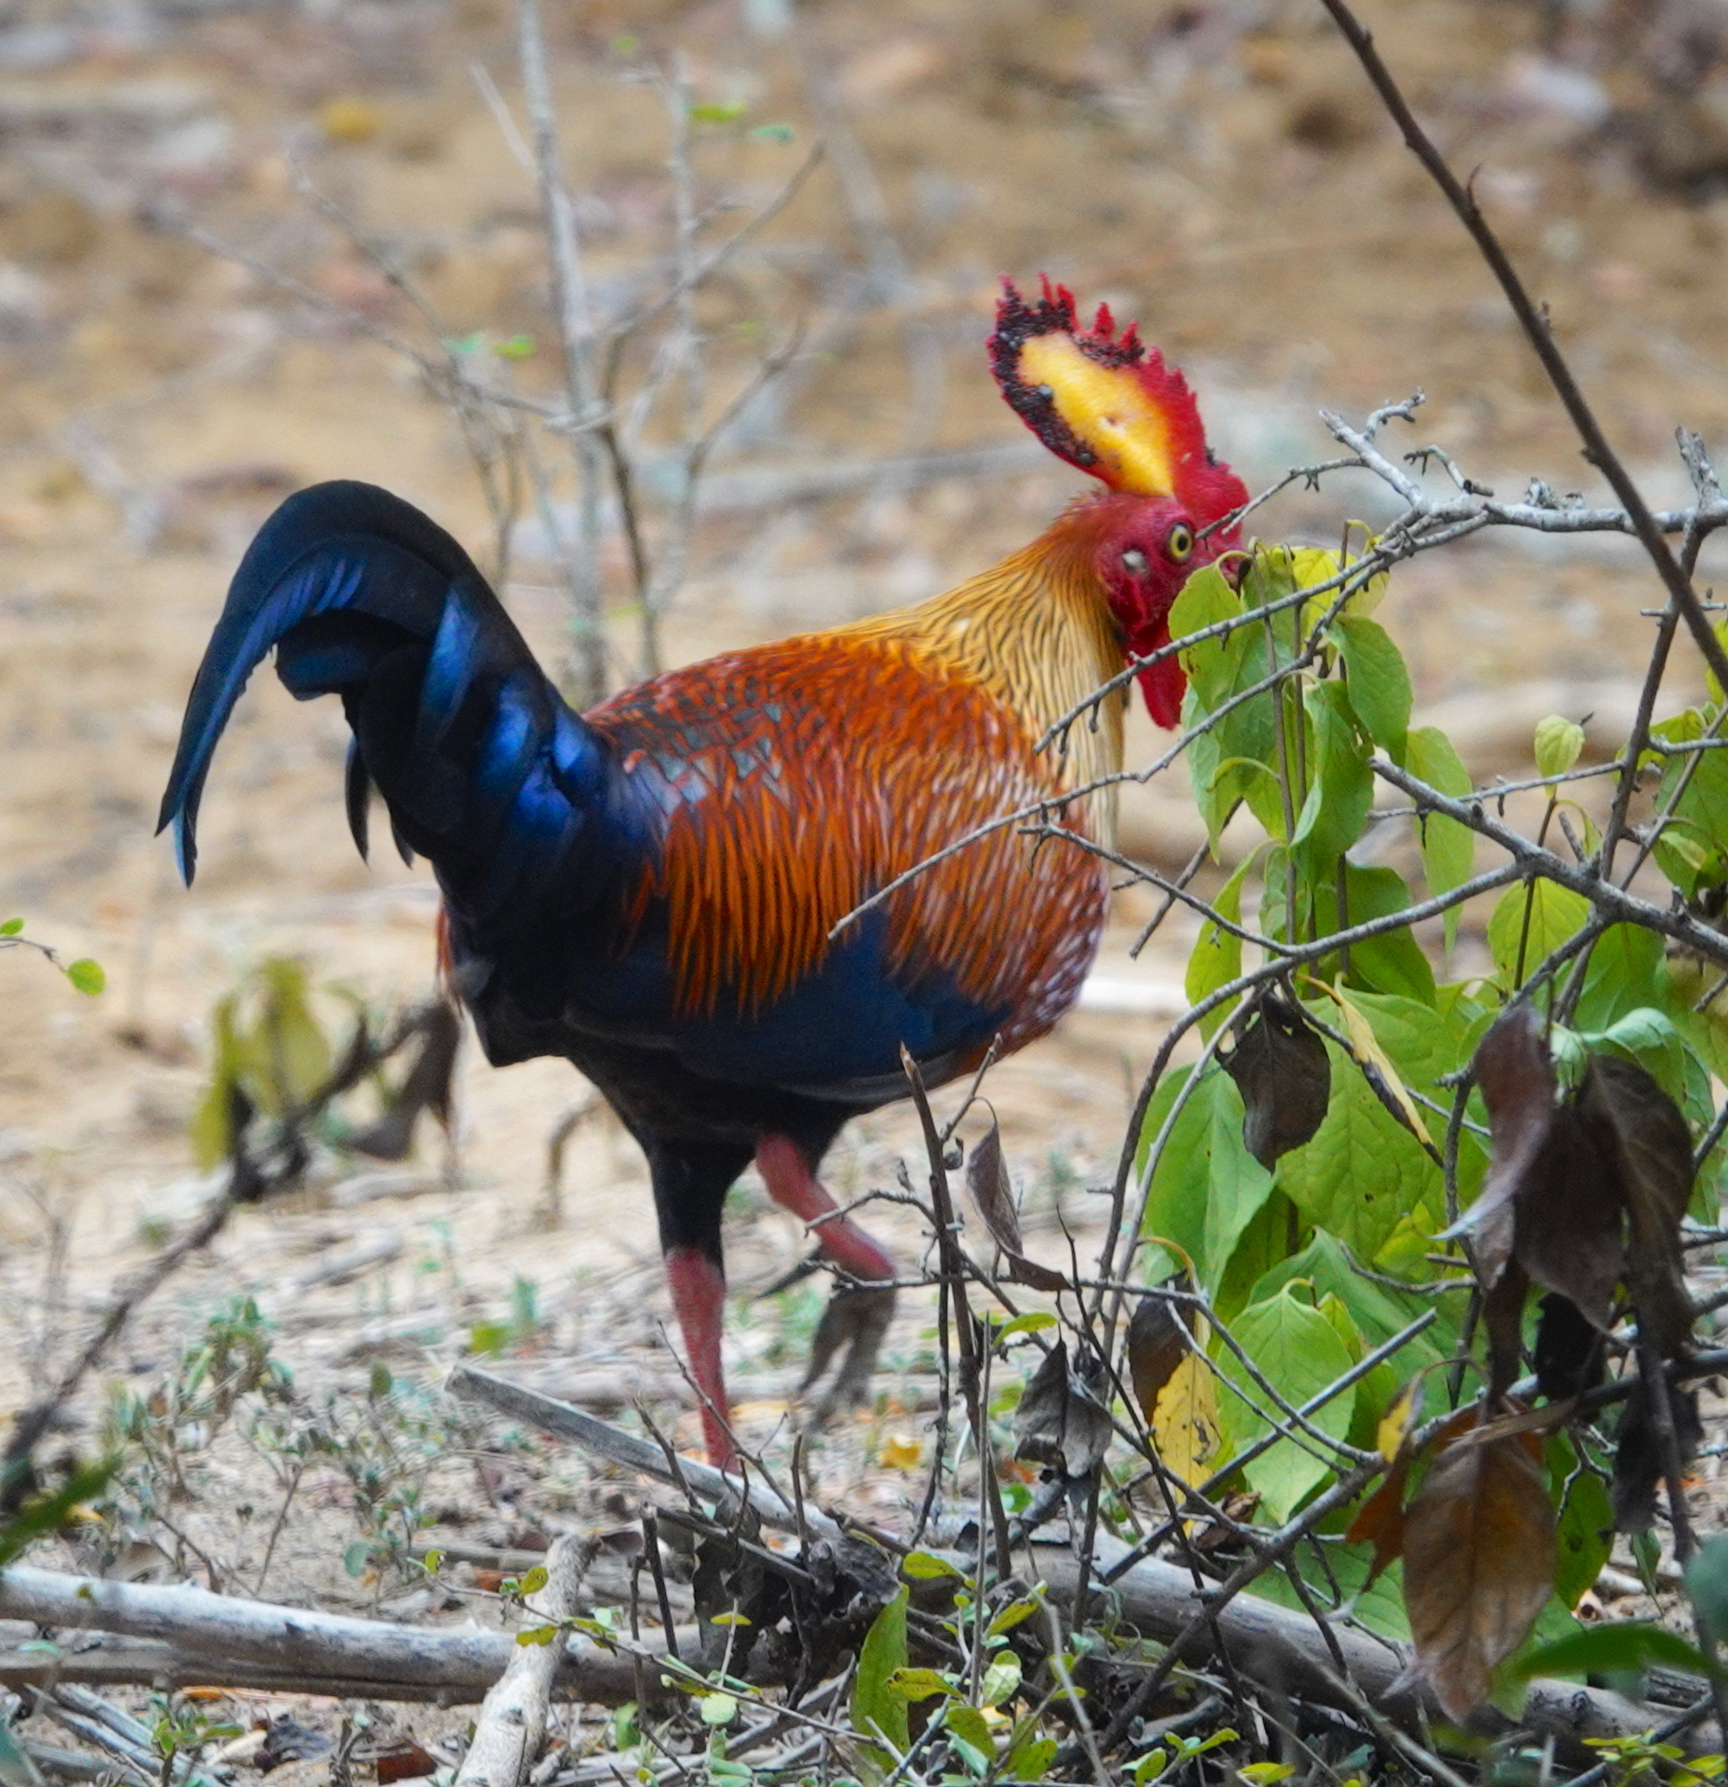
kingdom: Animalia
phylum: Chordata
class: Aves
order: Galliformes
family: Phasianidae
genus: Gallus
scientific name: Gallus lafayettii
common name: Sri lanka junglefowl
